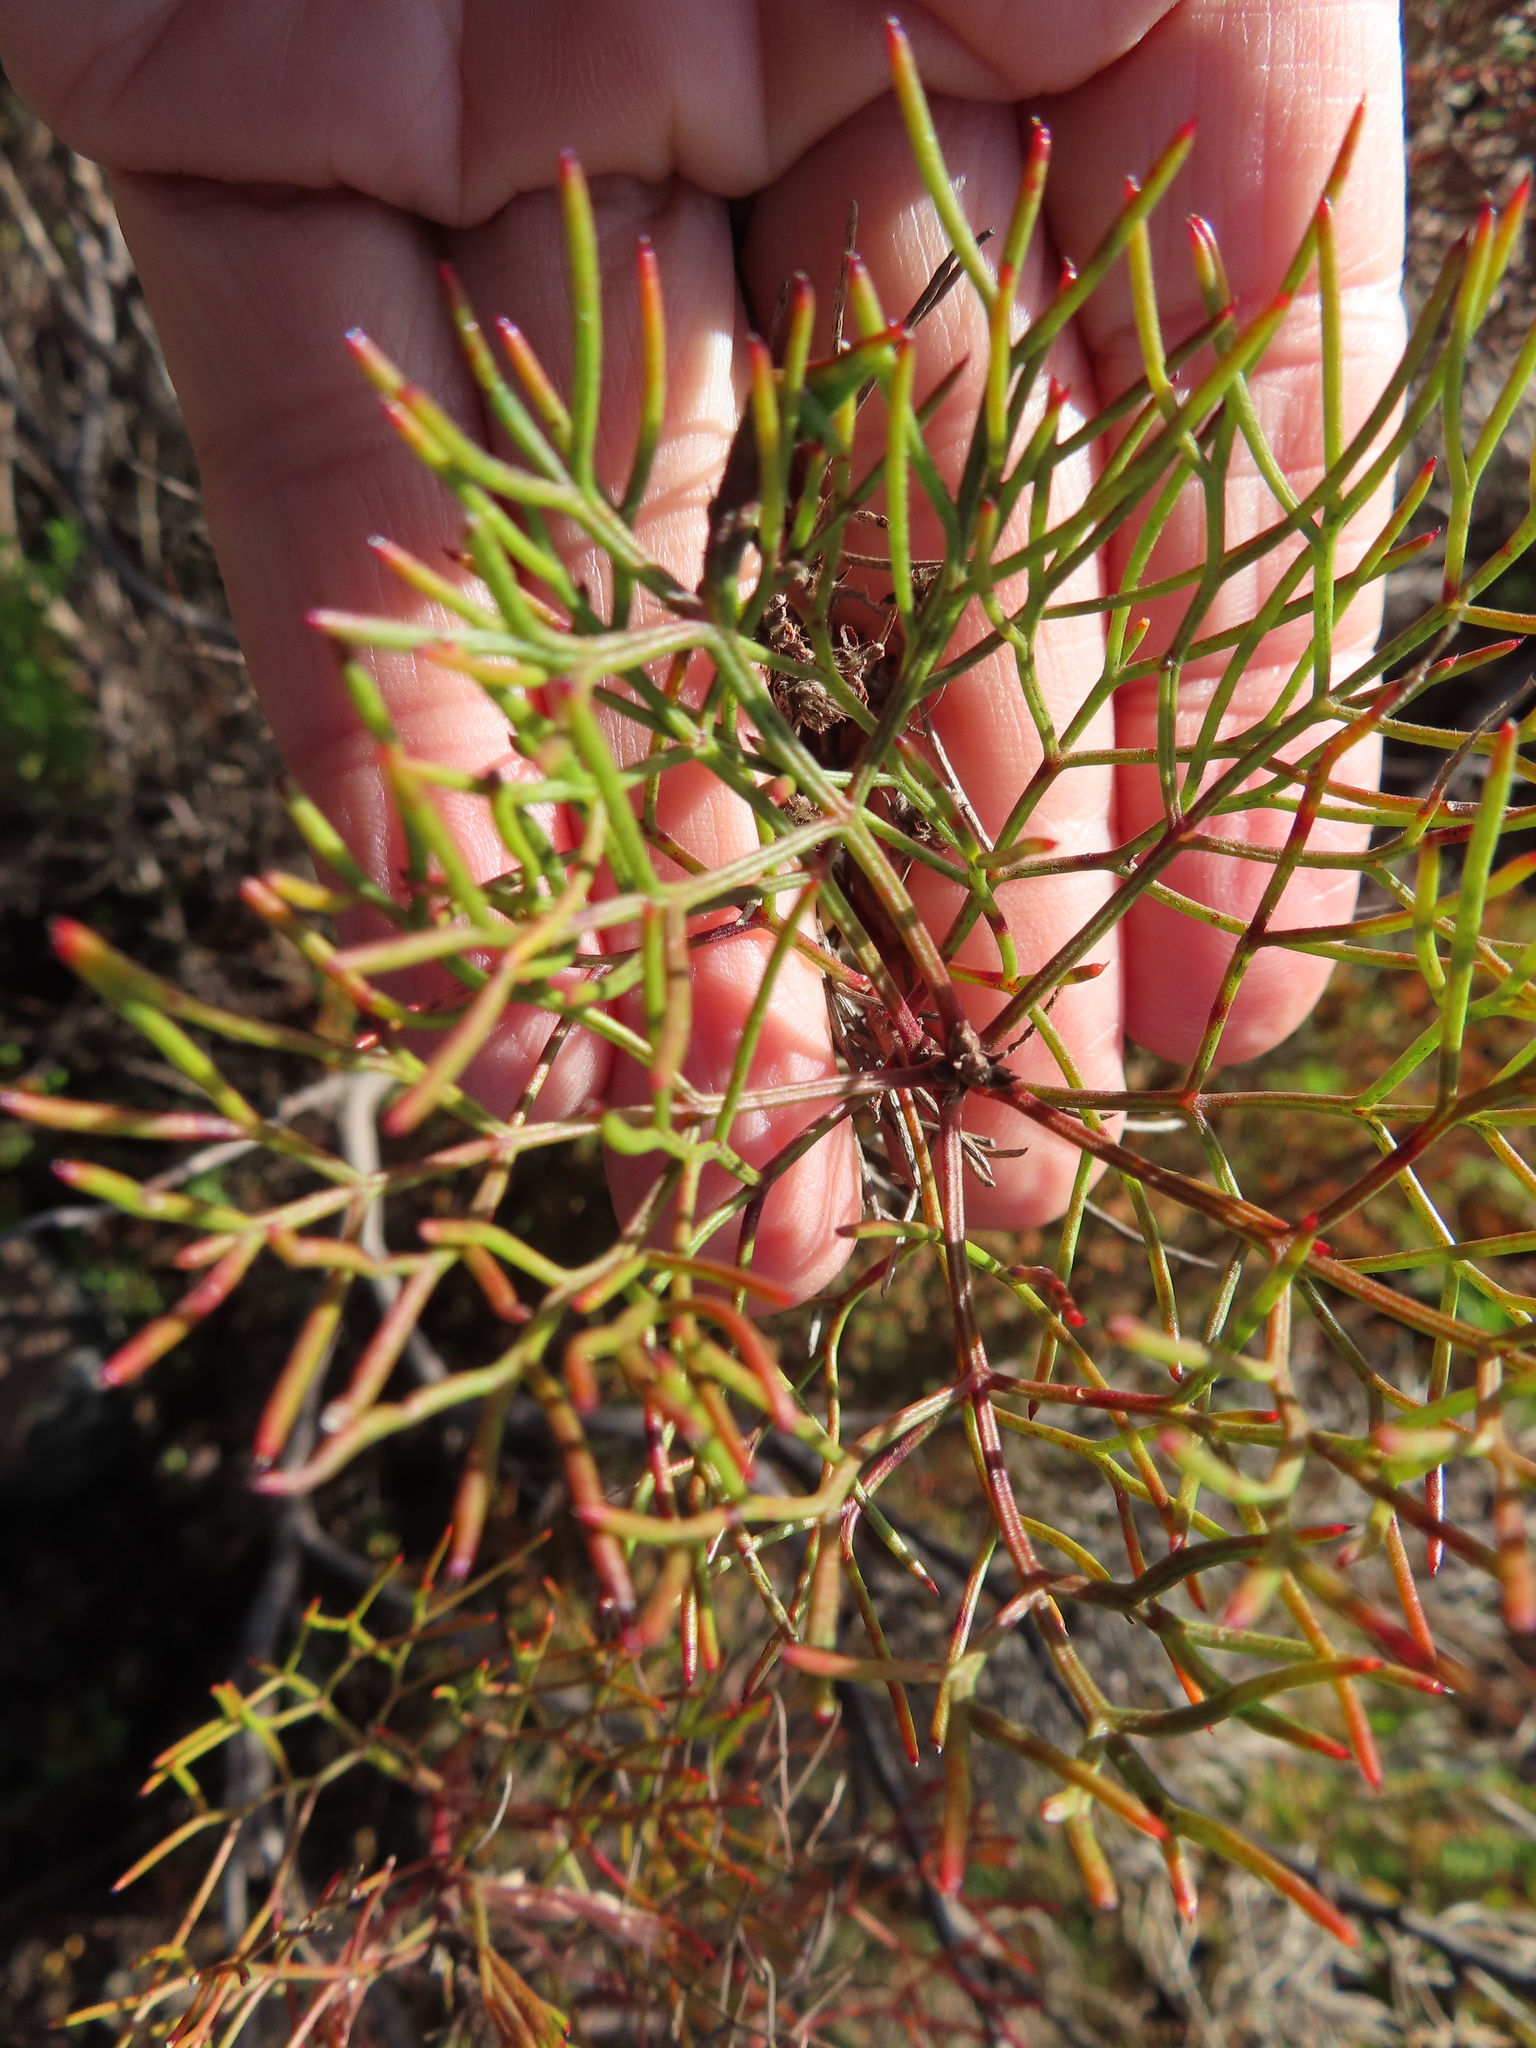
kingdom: Plantae
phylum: Tracheophyta
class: Magnoliopsida
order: Proteales
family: Proteaceae
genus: Serruria
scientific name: Serruria bolusii
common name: Agulhas spiderhead
